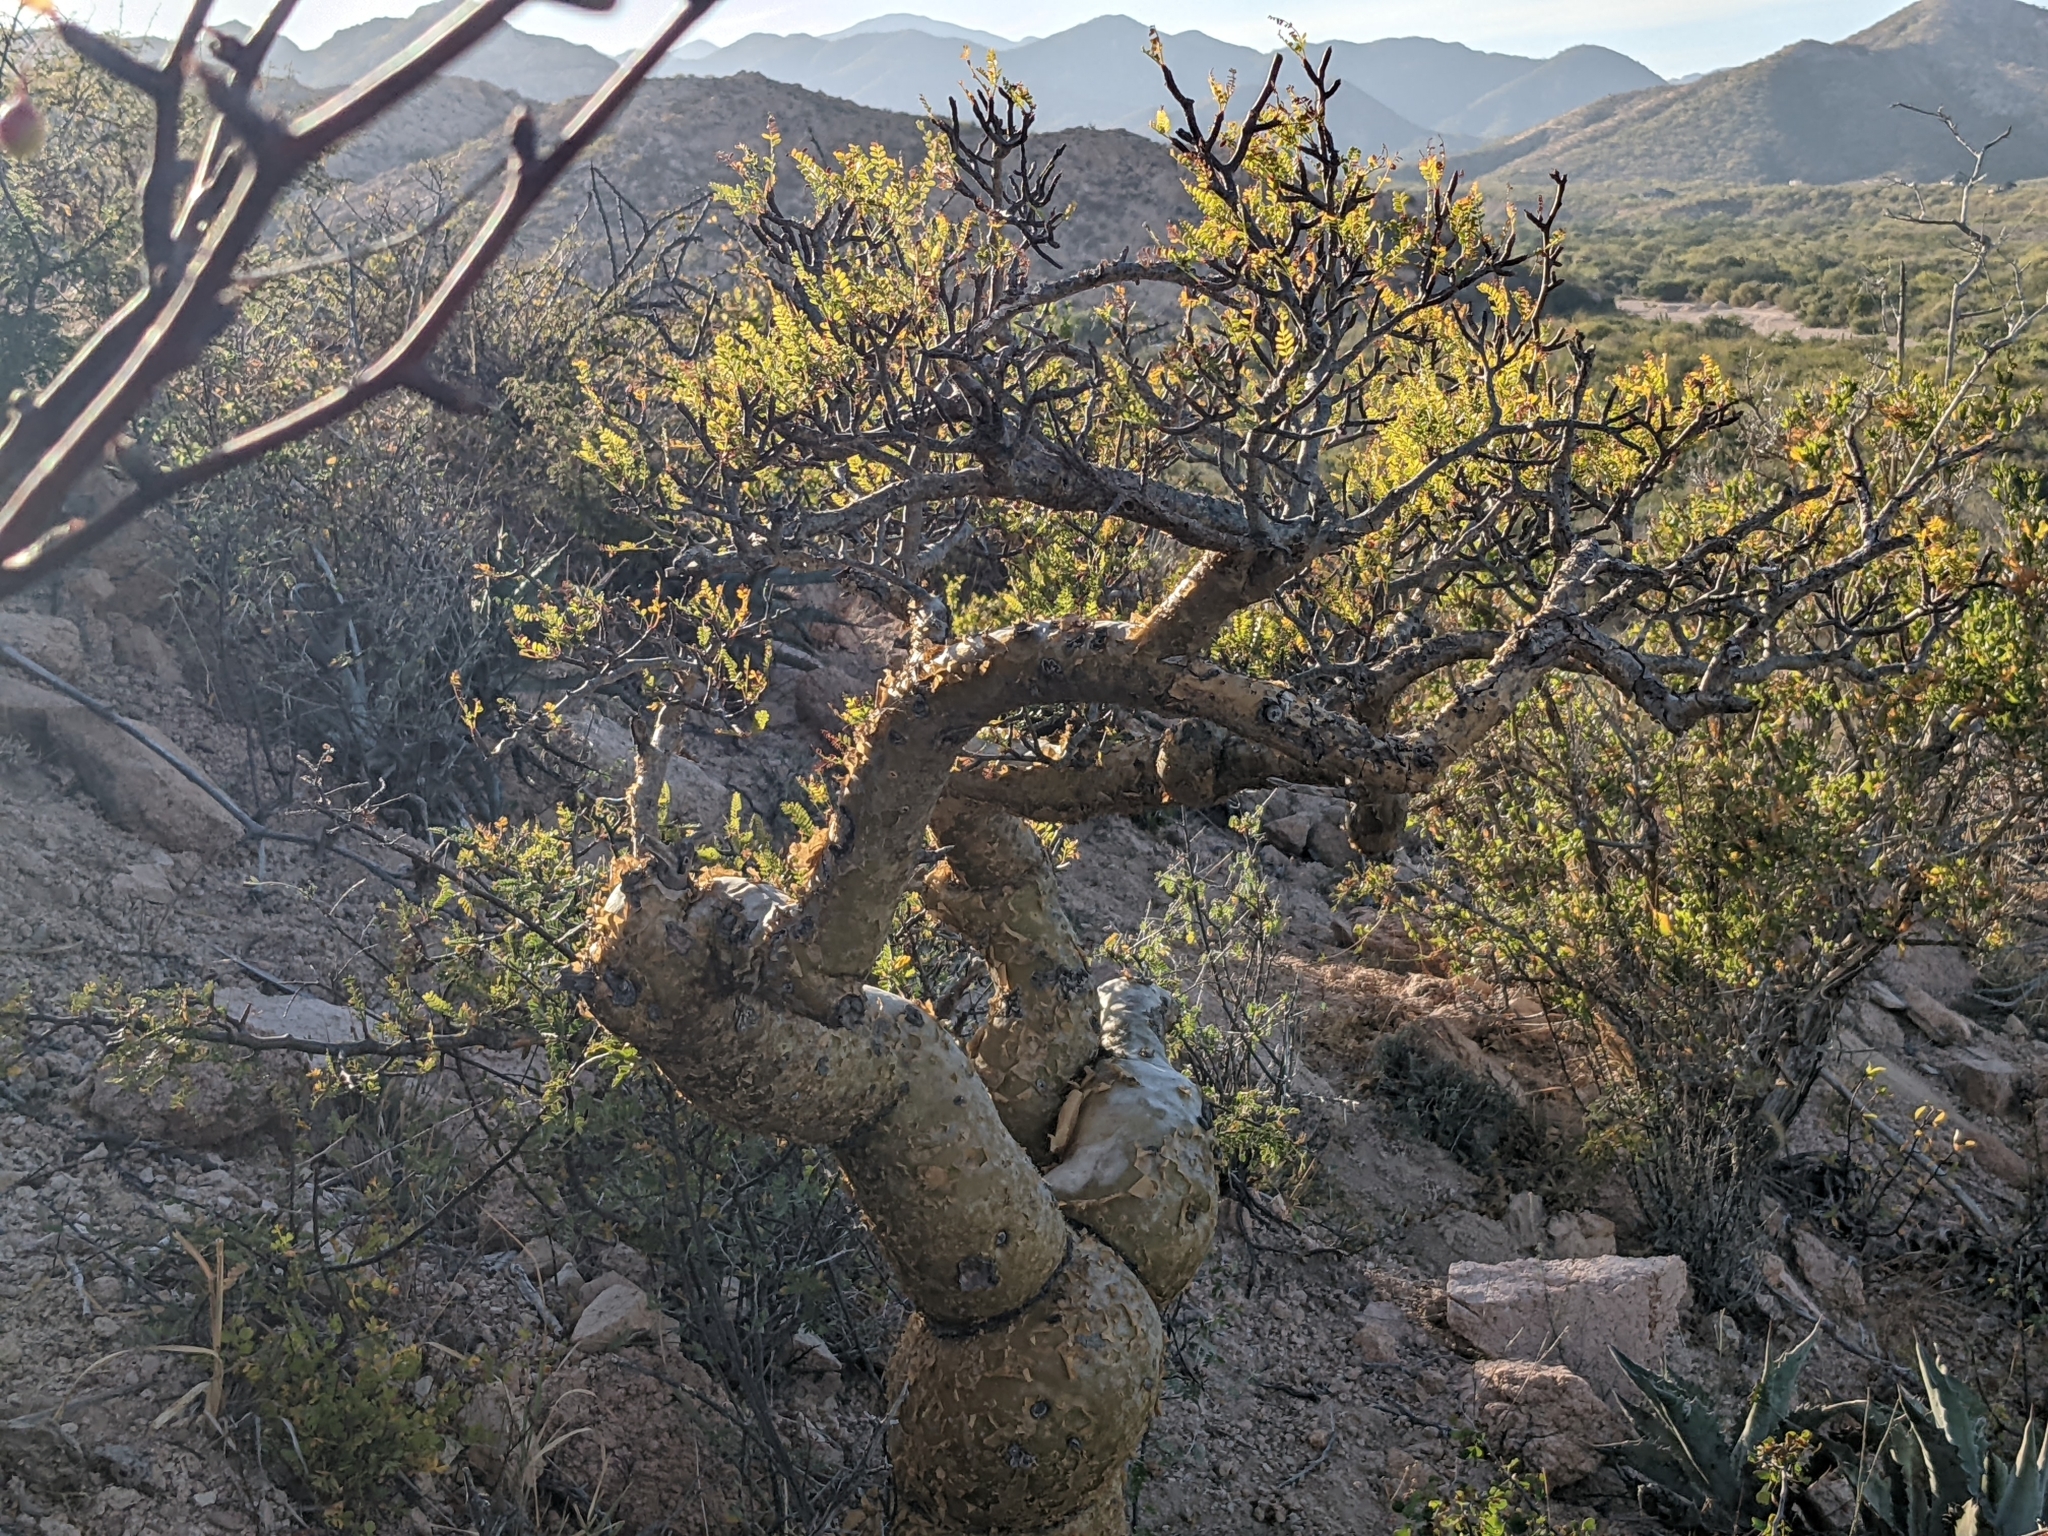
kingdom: Plantae
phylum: Tracheophyta
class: Magnoliopsida
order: Sapindales
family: Burseraceae
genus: Bursera
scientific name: Bursera microphylla
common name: Elephant tree
